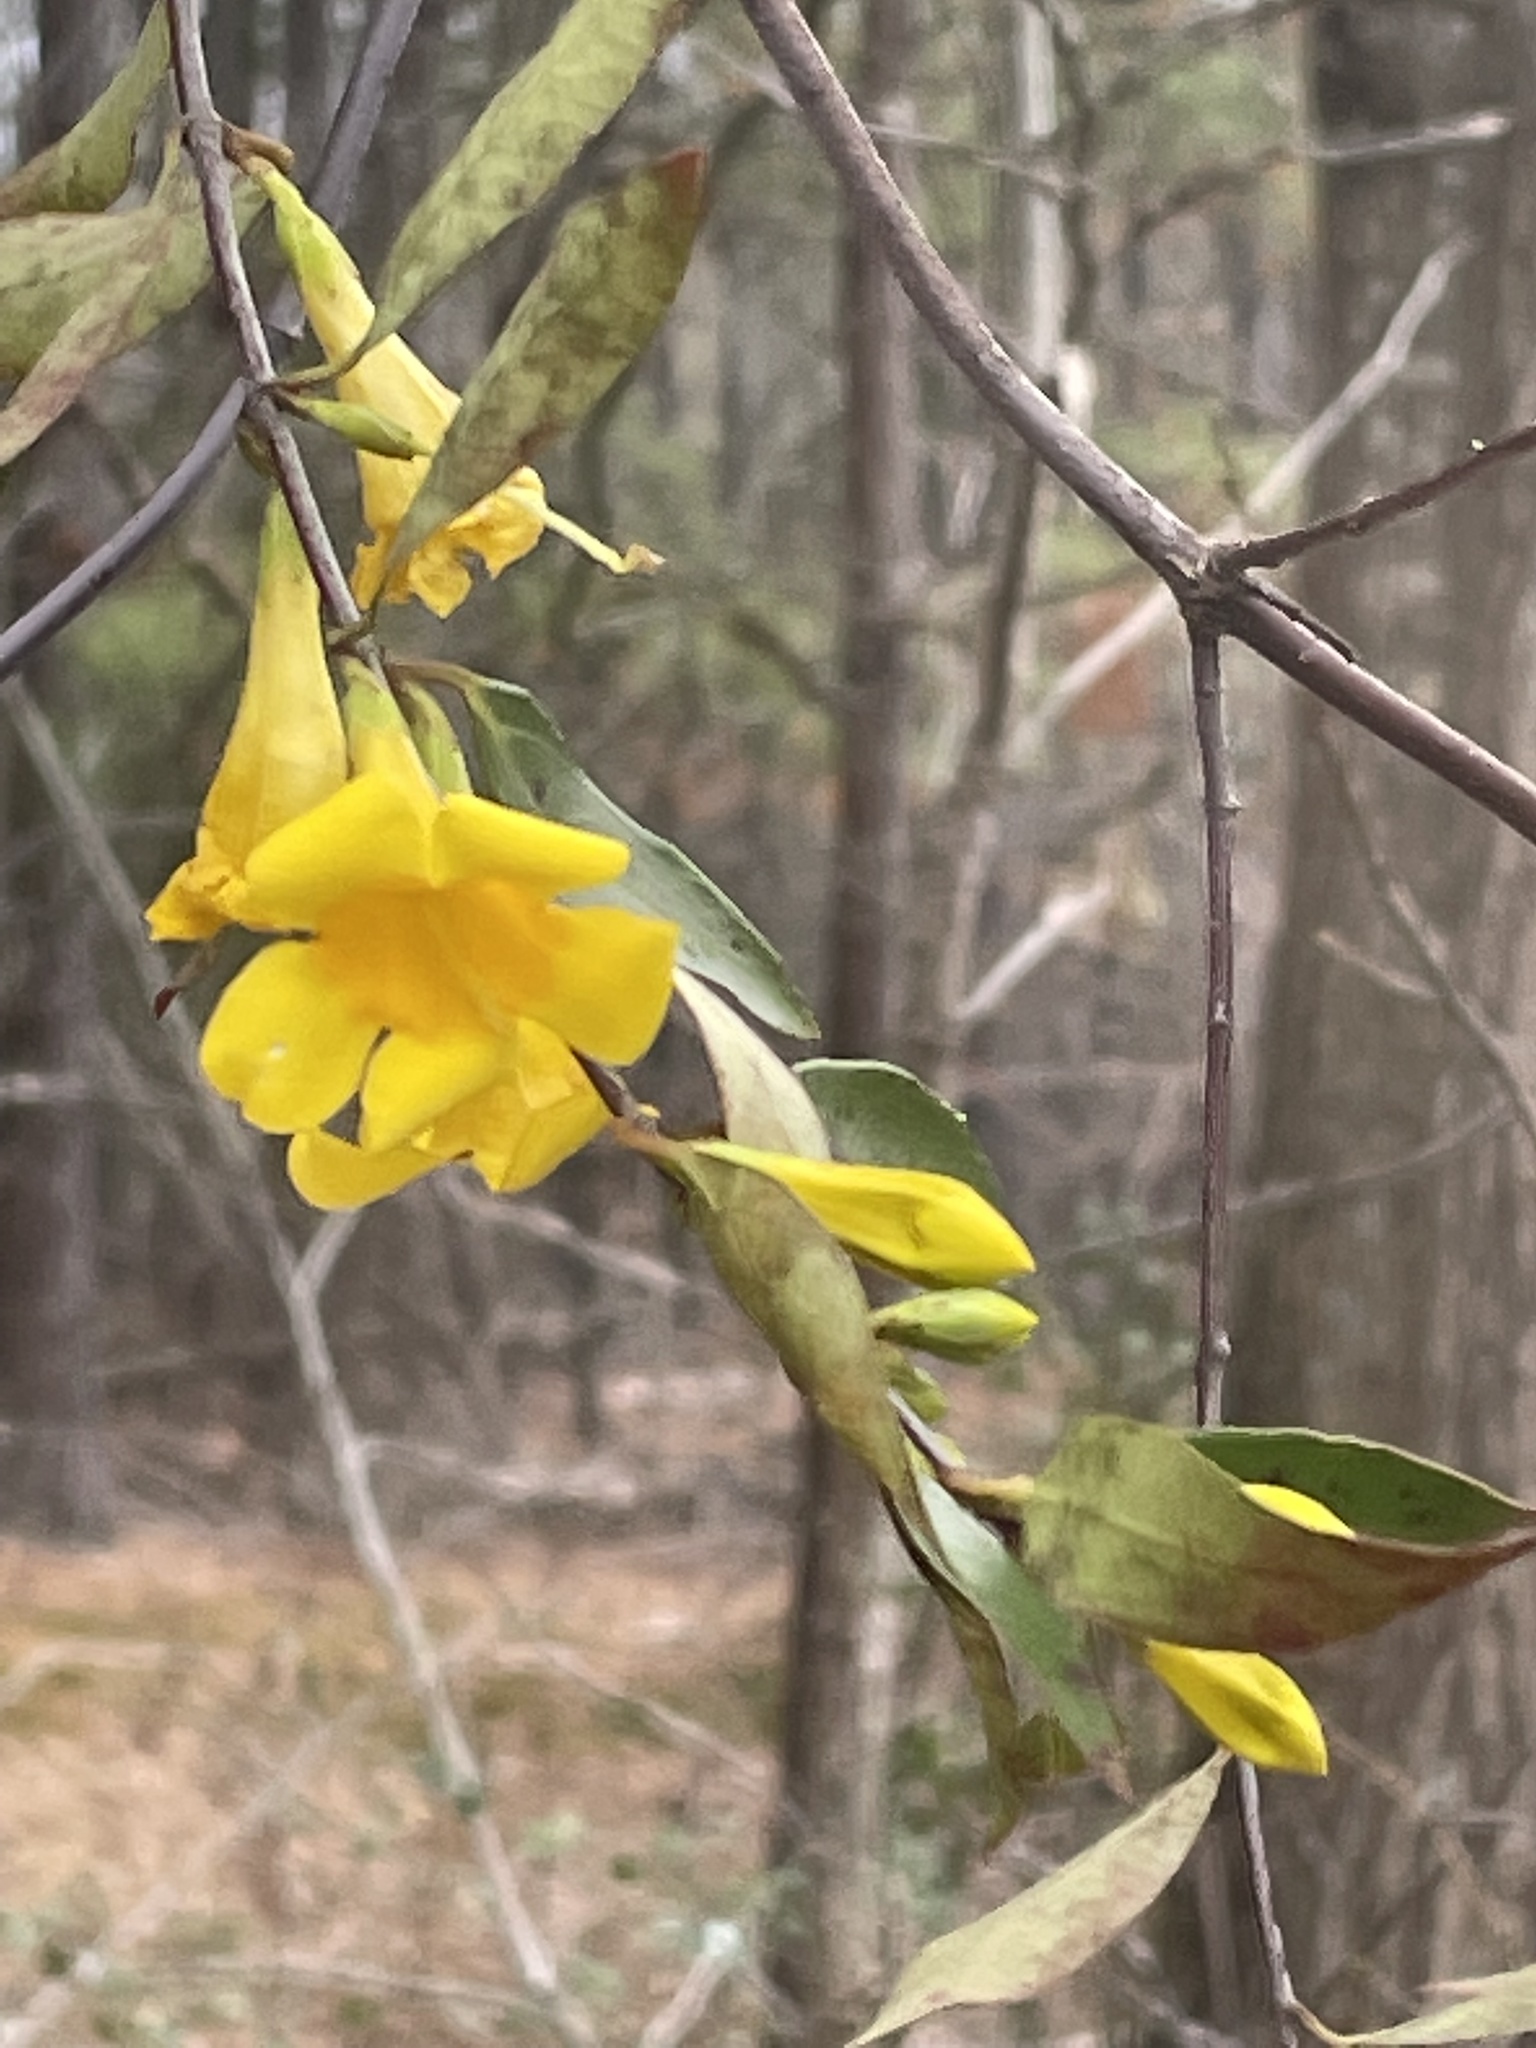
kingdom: Plantae
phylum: Tracheophyta
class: Magnoliopsida
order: Gentianales
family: Gelsemiaceae
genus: Gelsemium
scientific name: Gelsemium sempervirens
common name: Carolina-jasmine
